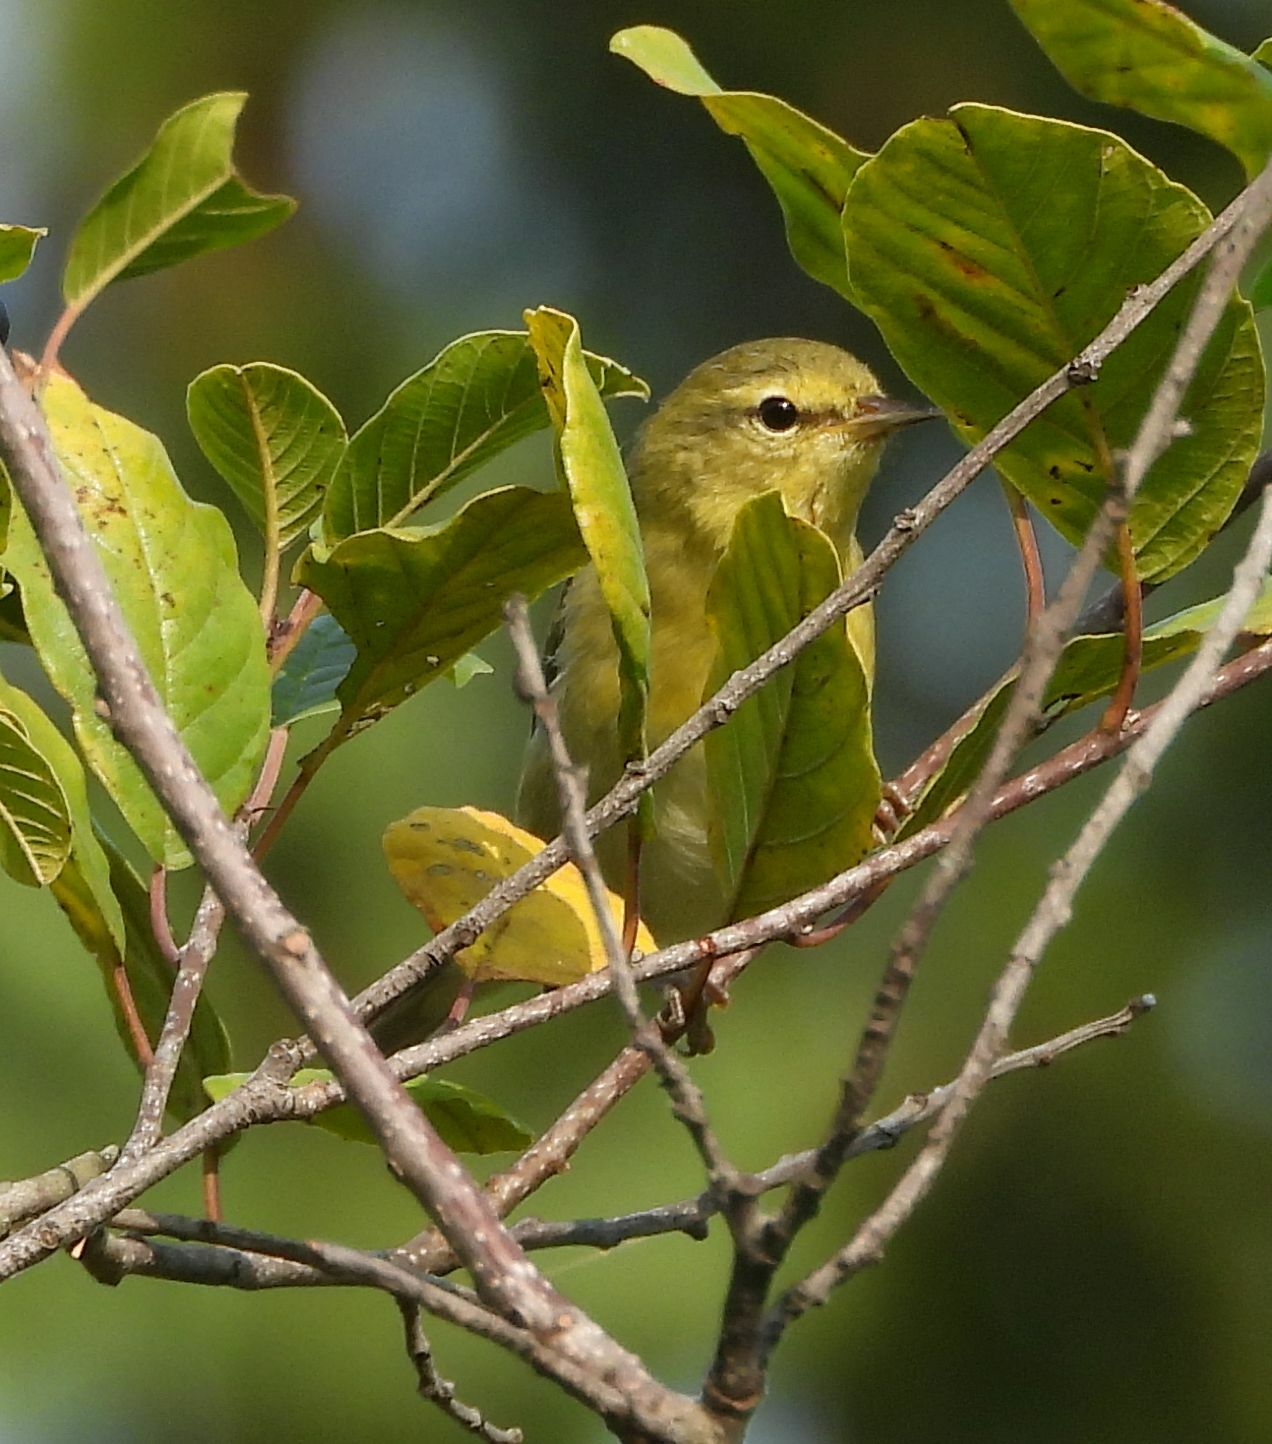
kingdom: Animalia
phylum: Chordata
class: Aves
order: Passeriformes
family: Parulidae
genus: Leiothlypis
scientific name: Leiothlypis peregrina
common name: Tennessee warbler
